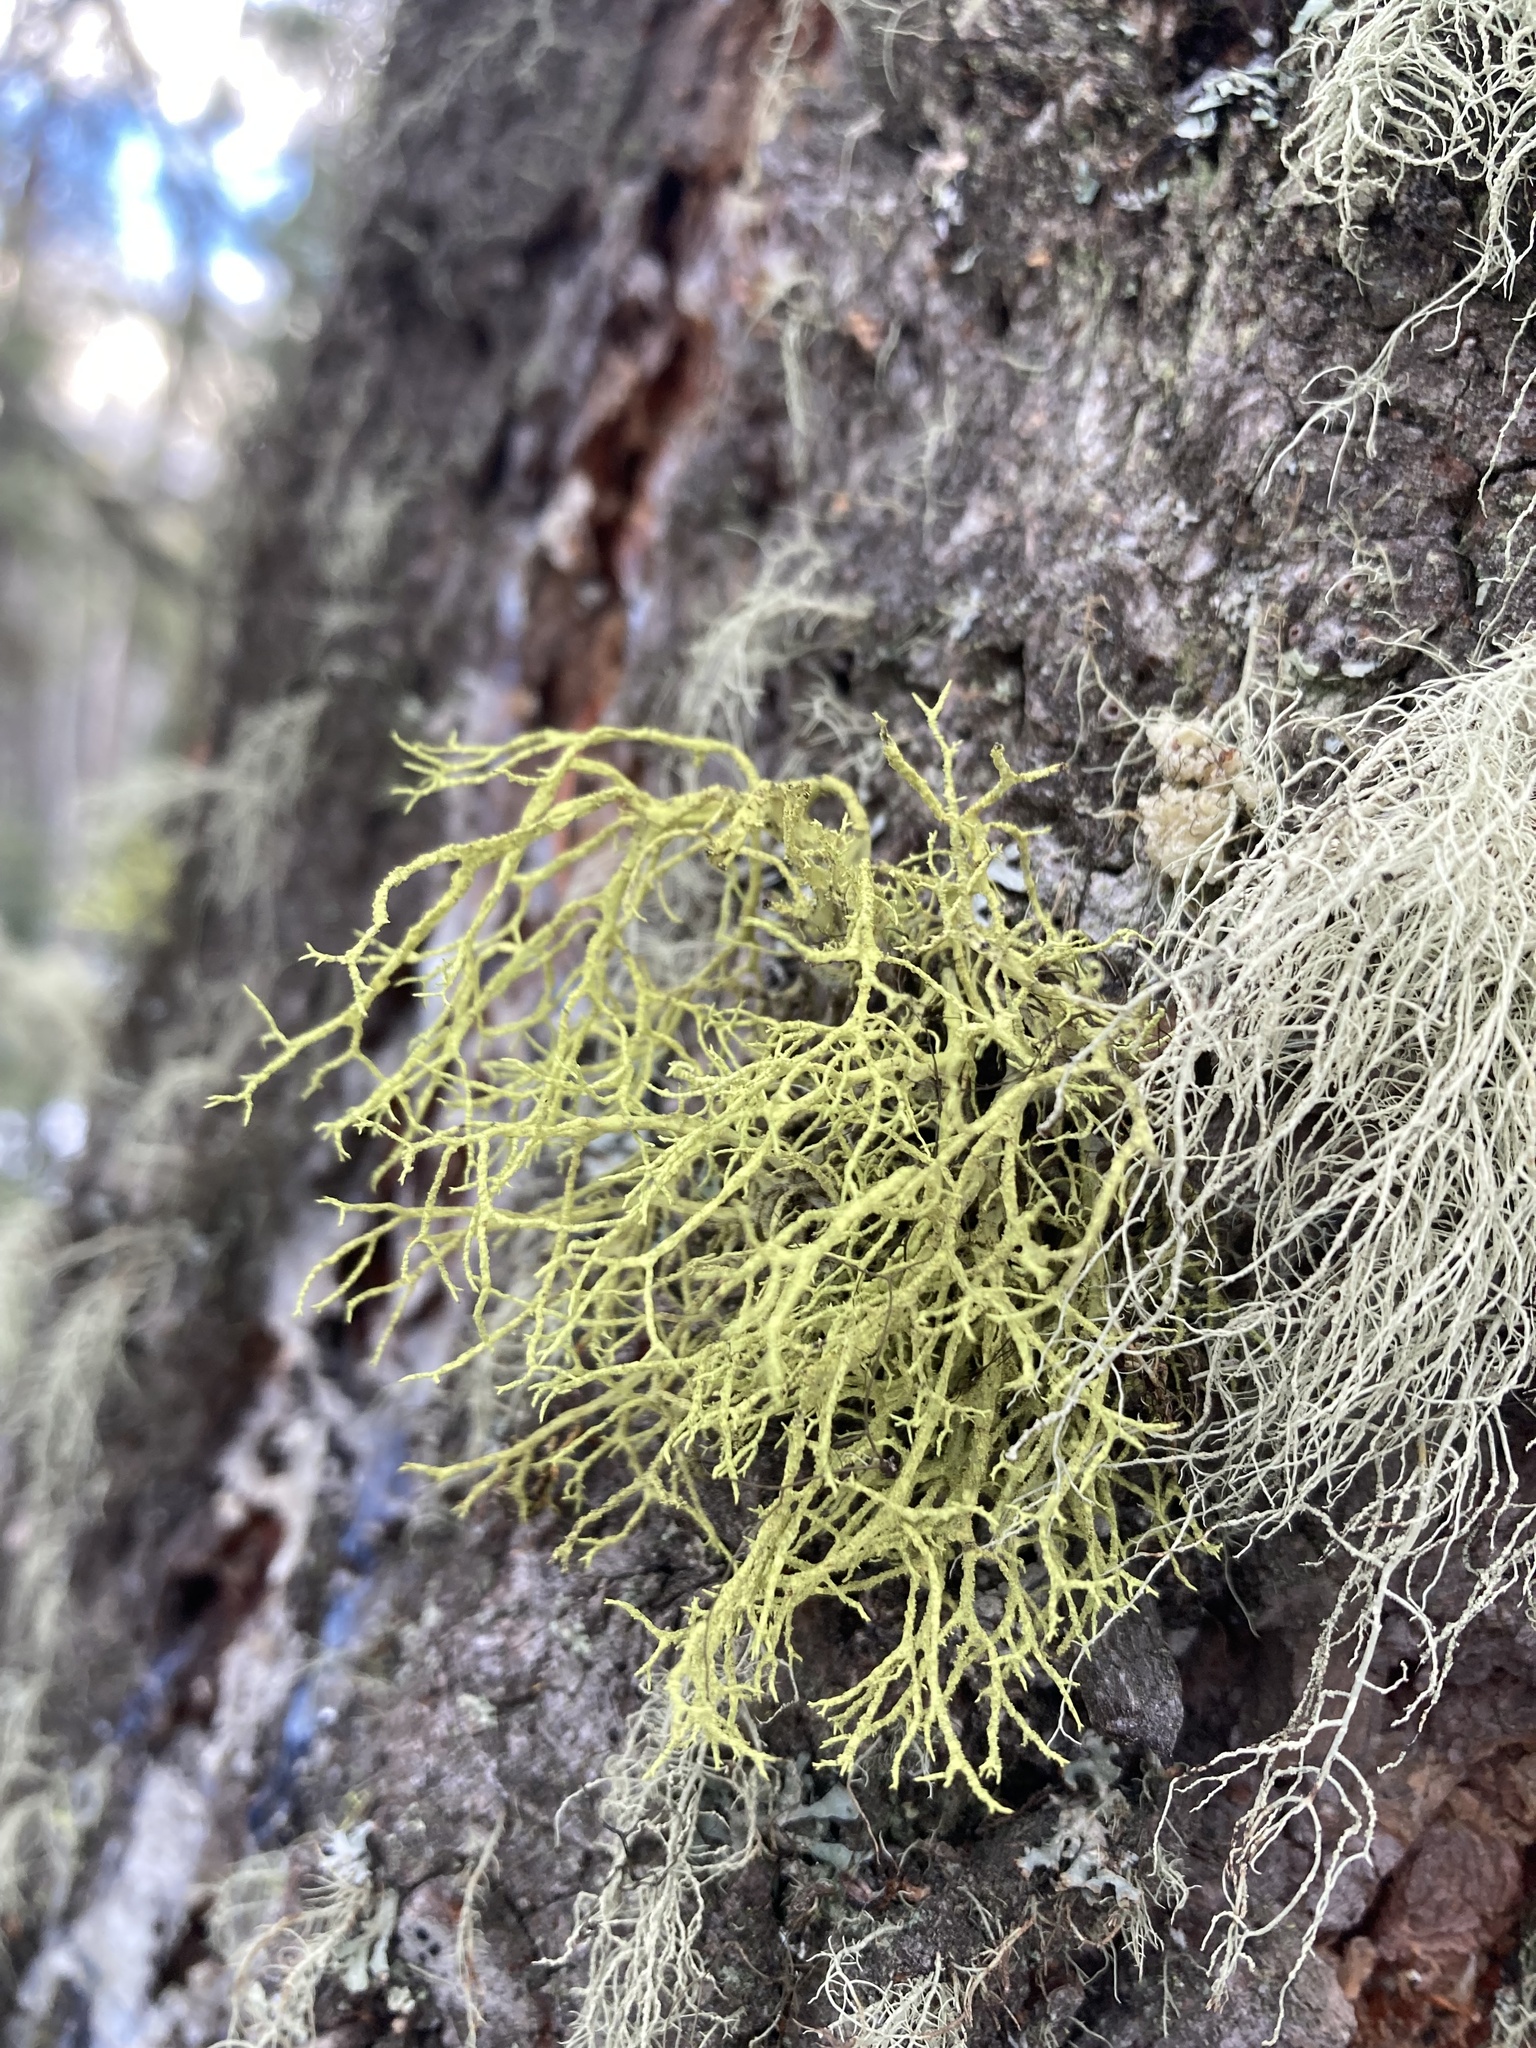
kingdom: Fungi
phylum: Ascomycota
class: Lecanoromycetes
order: Lecanorales
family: Parmeliaceae
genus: Letharia
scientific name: Letharia vulpina
